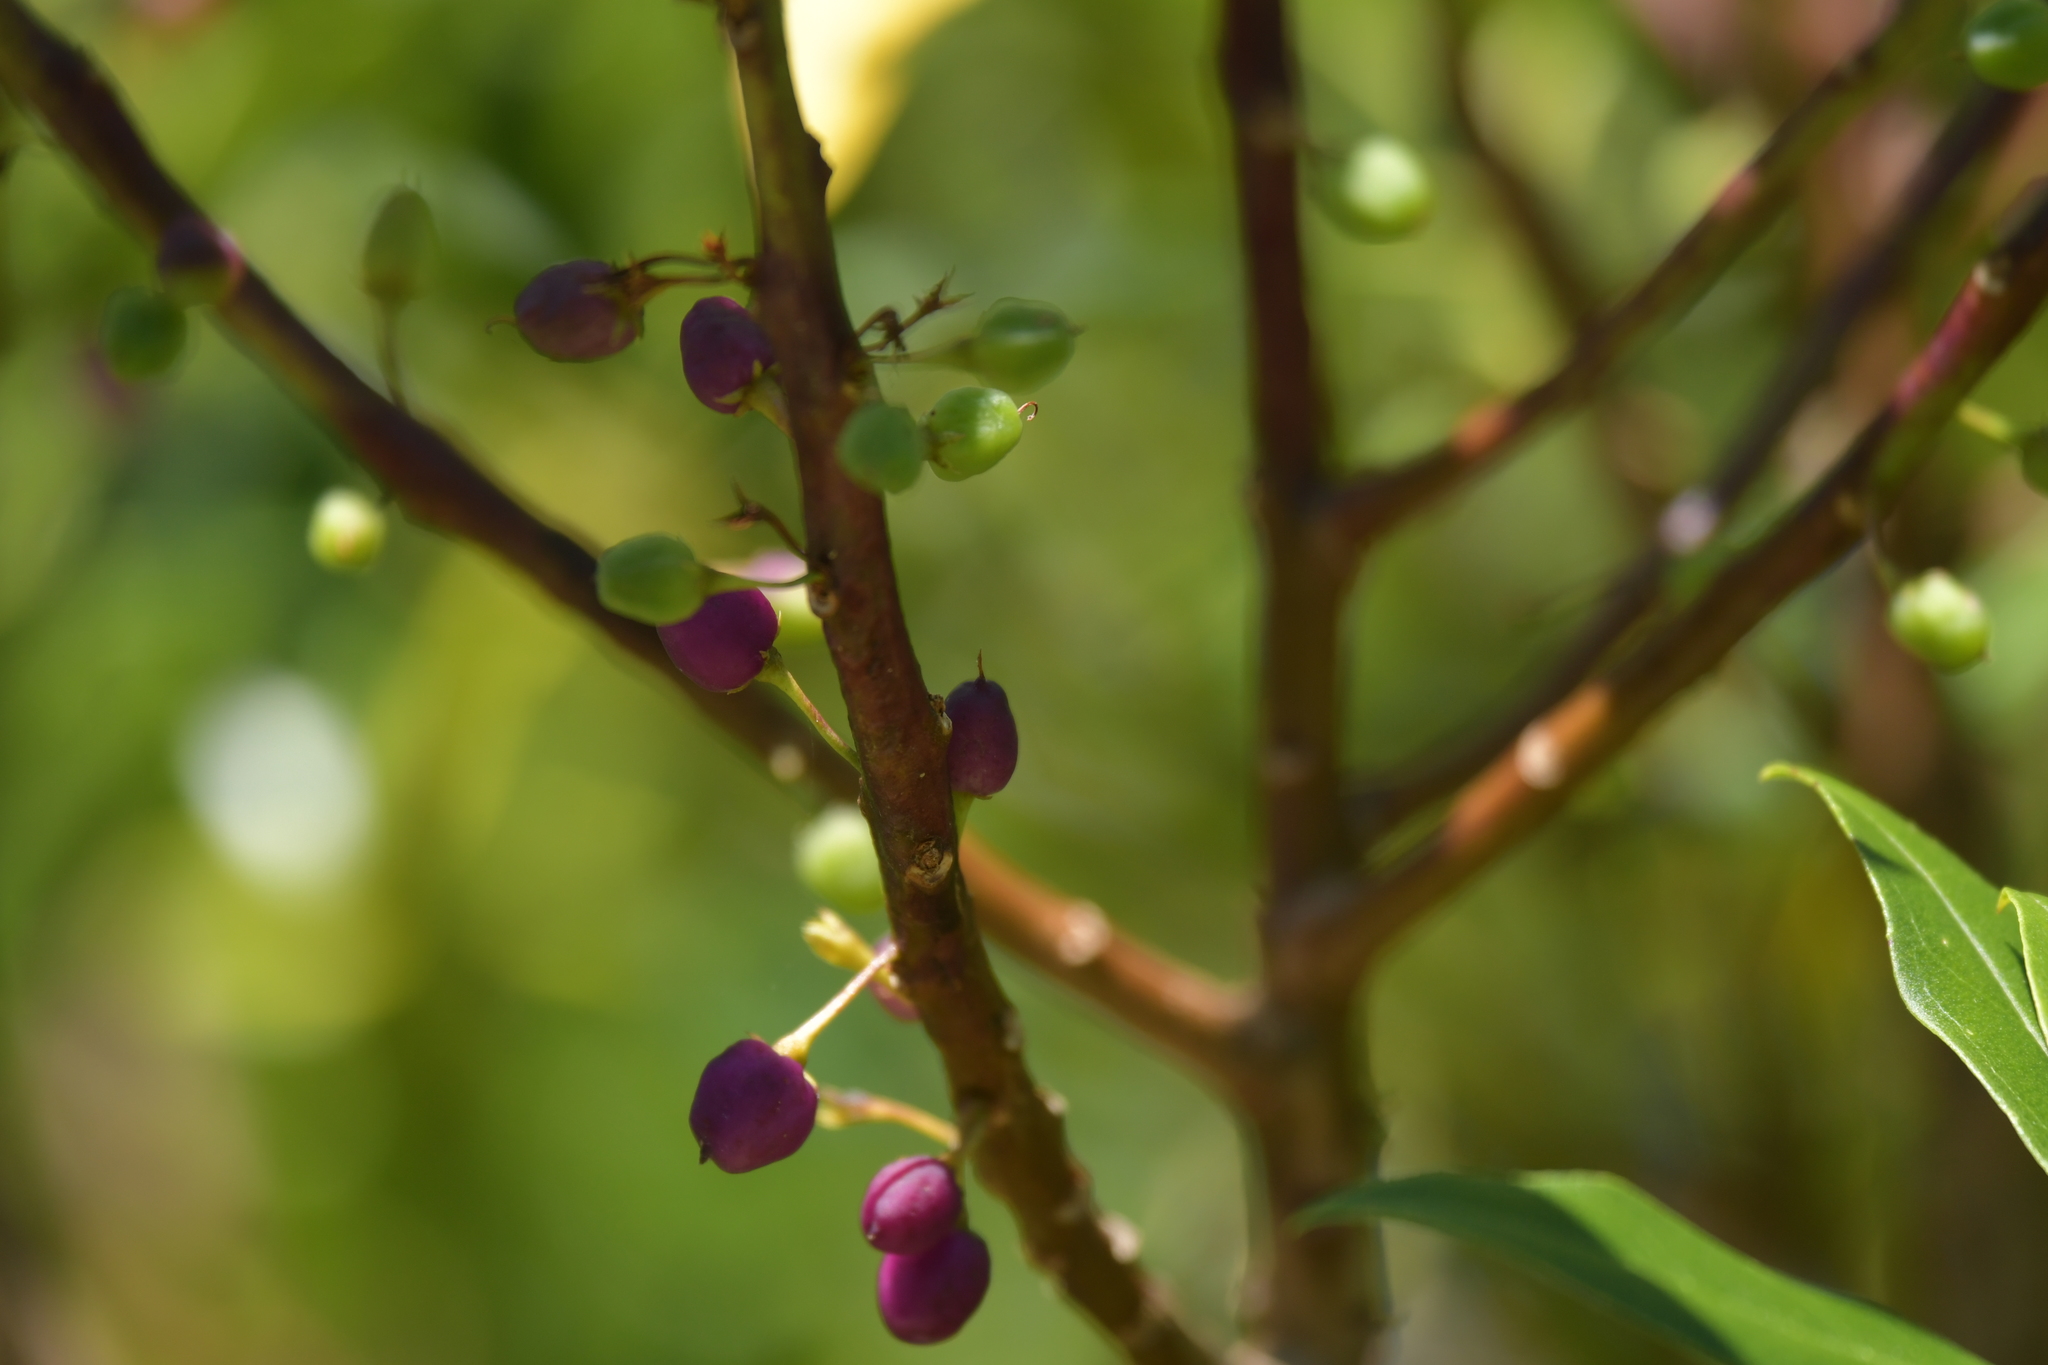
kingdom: Plantae
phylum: Tracheophyta
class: Magnoliopsida
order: Lamiales
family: Scrophulariaceae
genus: Myoporum
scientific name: Myoporum laetum
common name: Ngaio tree
